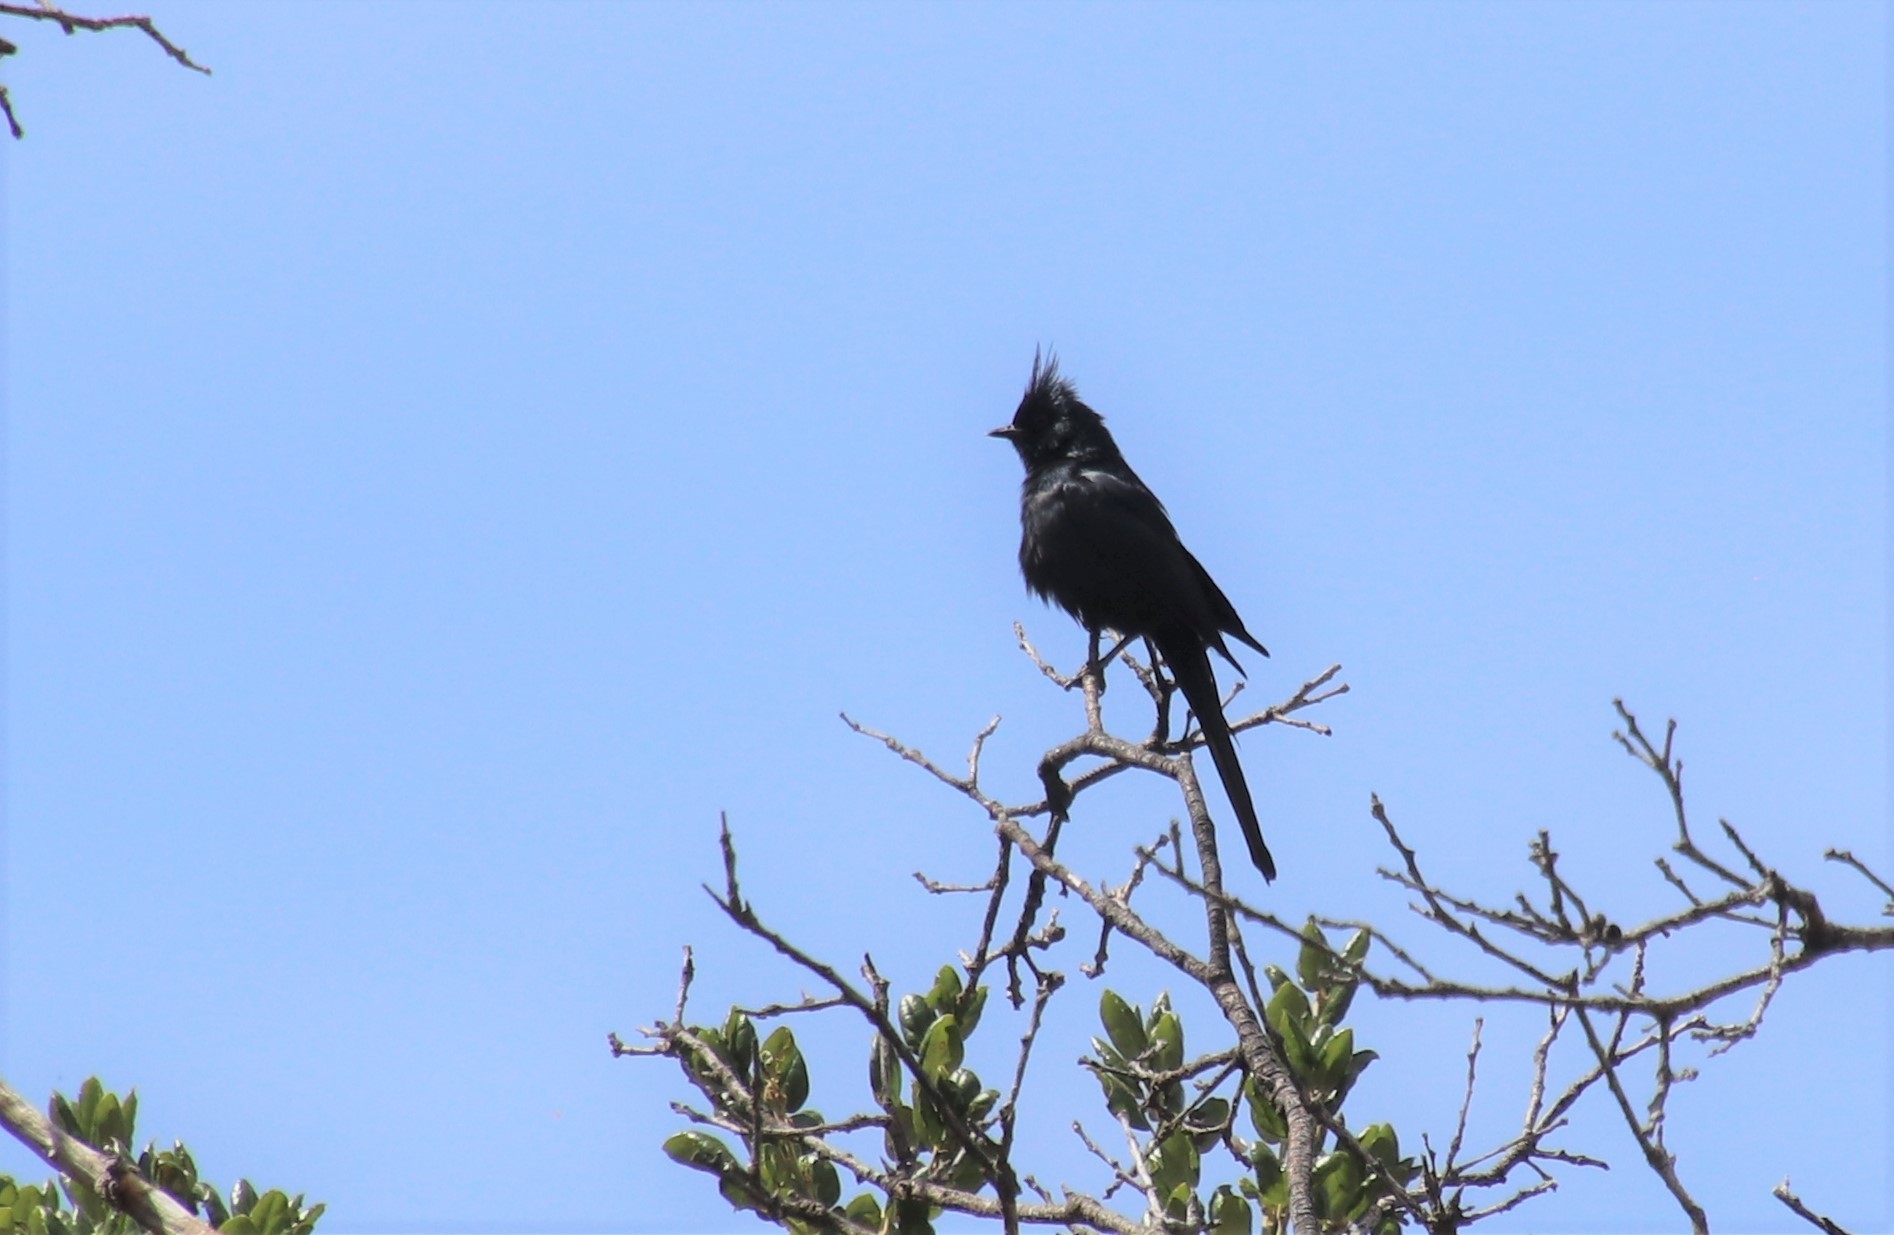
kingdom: Animalia
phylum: Chordata
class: Aves
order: Passeriformes
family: Ptilogonatidae
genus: Phainopepla
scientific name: Phainopepla nitens
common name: Phainopepla
